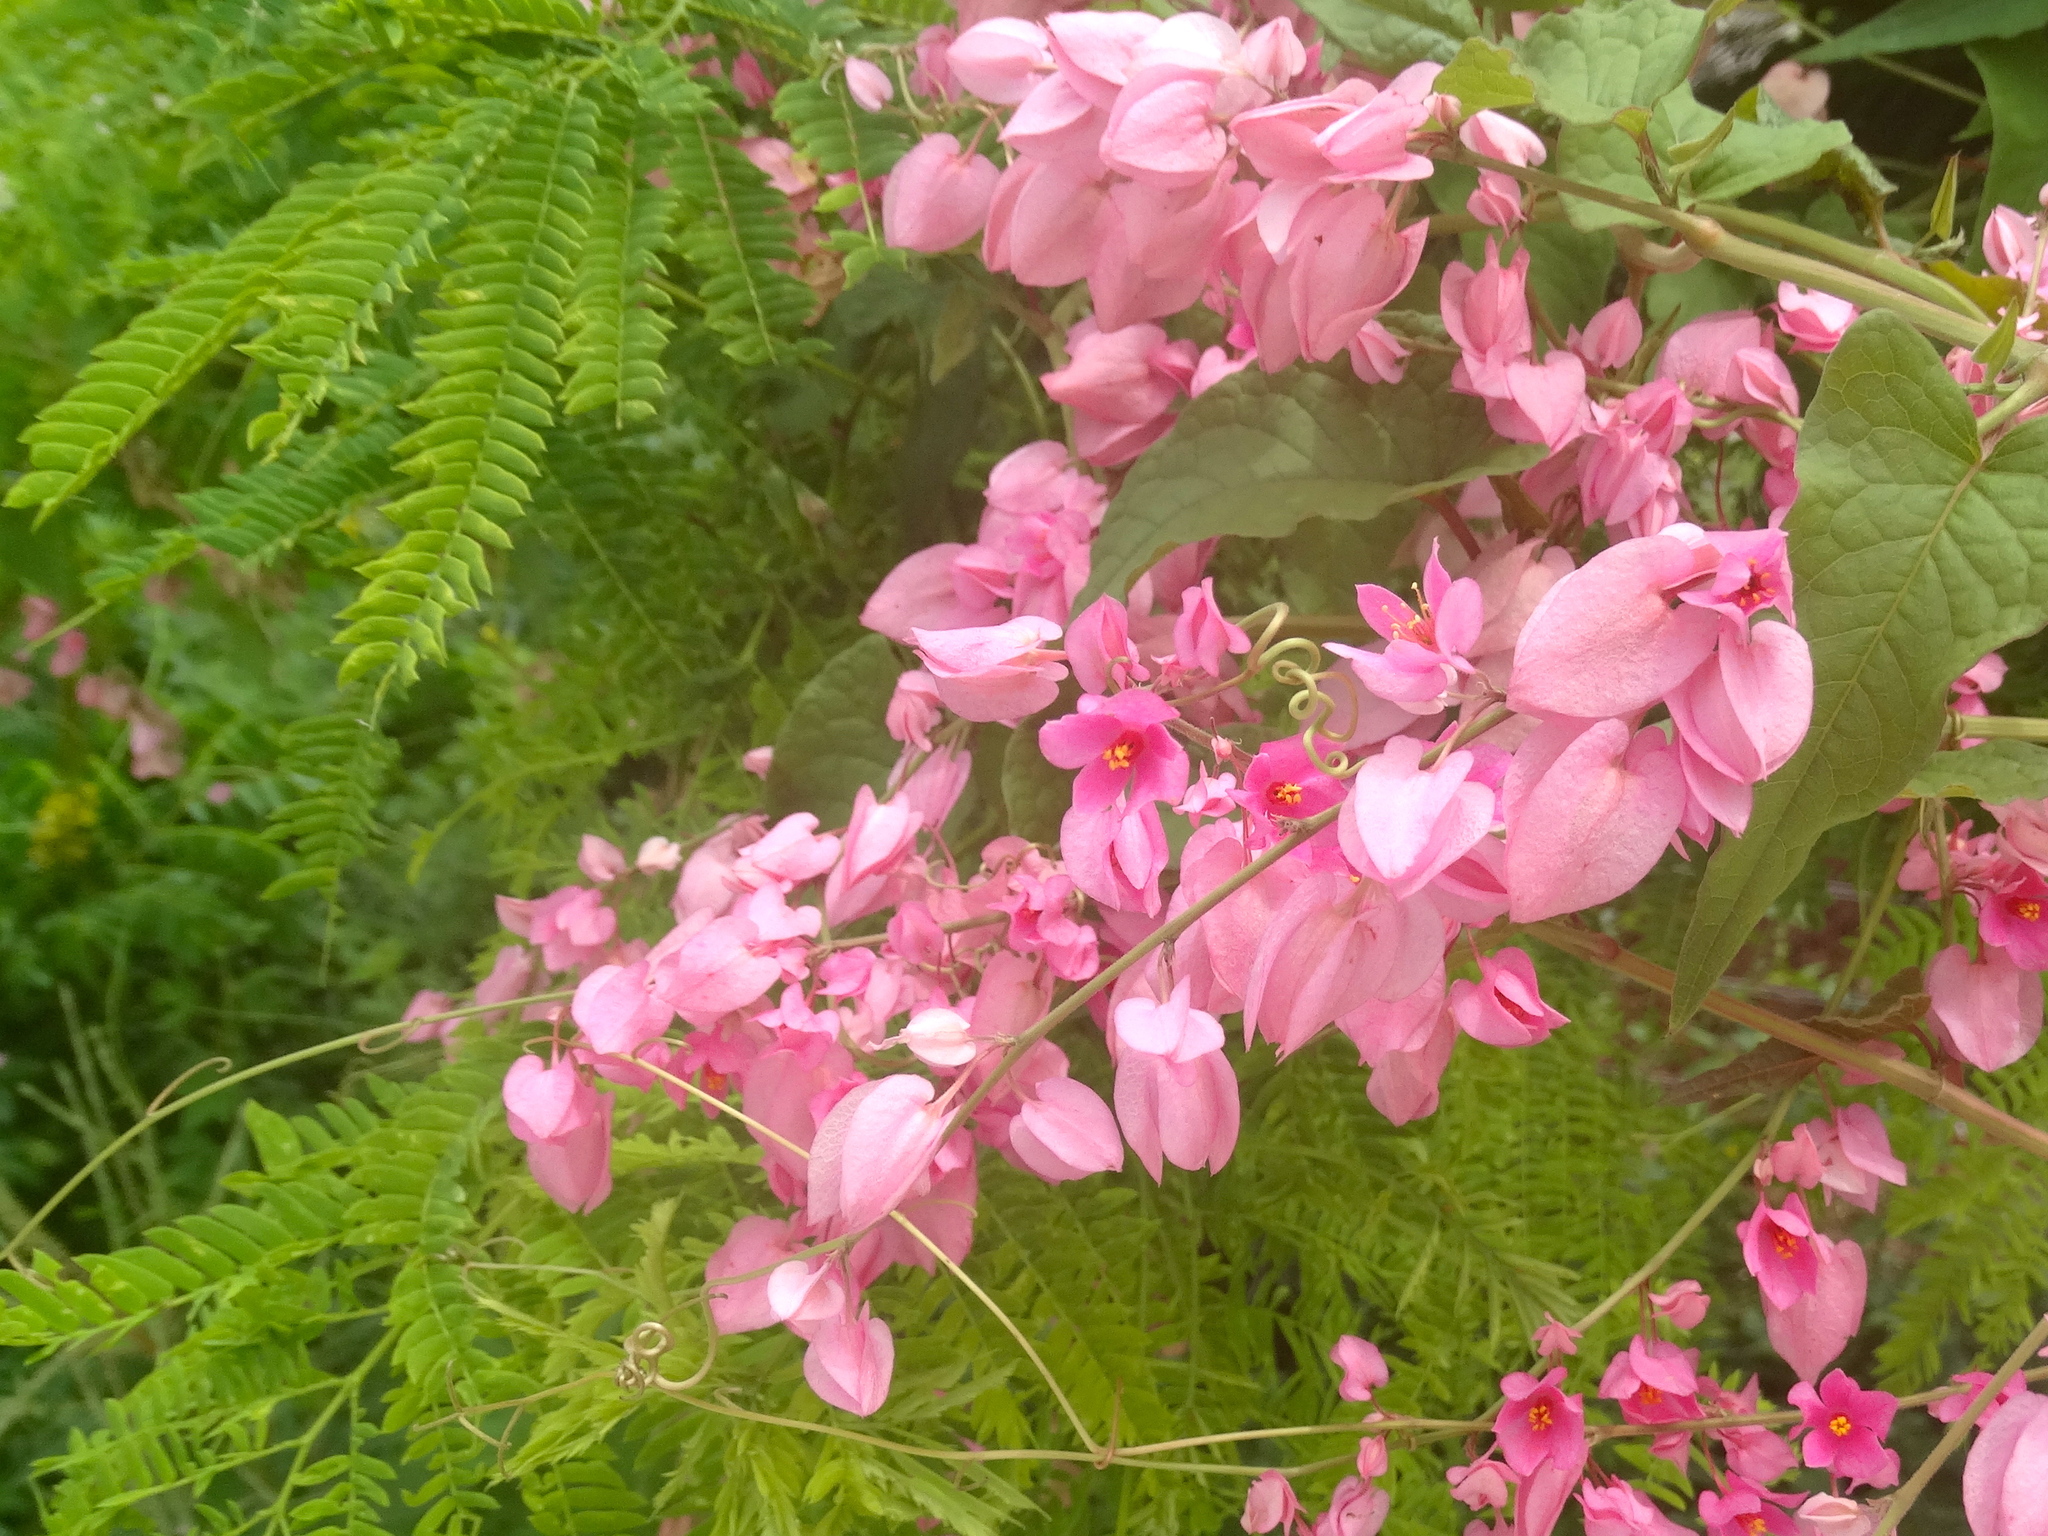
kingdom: Plantae
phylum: Tracheophyta
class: Magnoliopsida
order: Caryophyllales
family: Polygonaceae
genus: Antigonon
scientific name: Antigonon leptopus
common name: Coral vine
